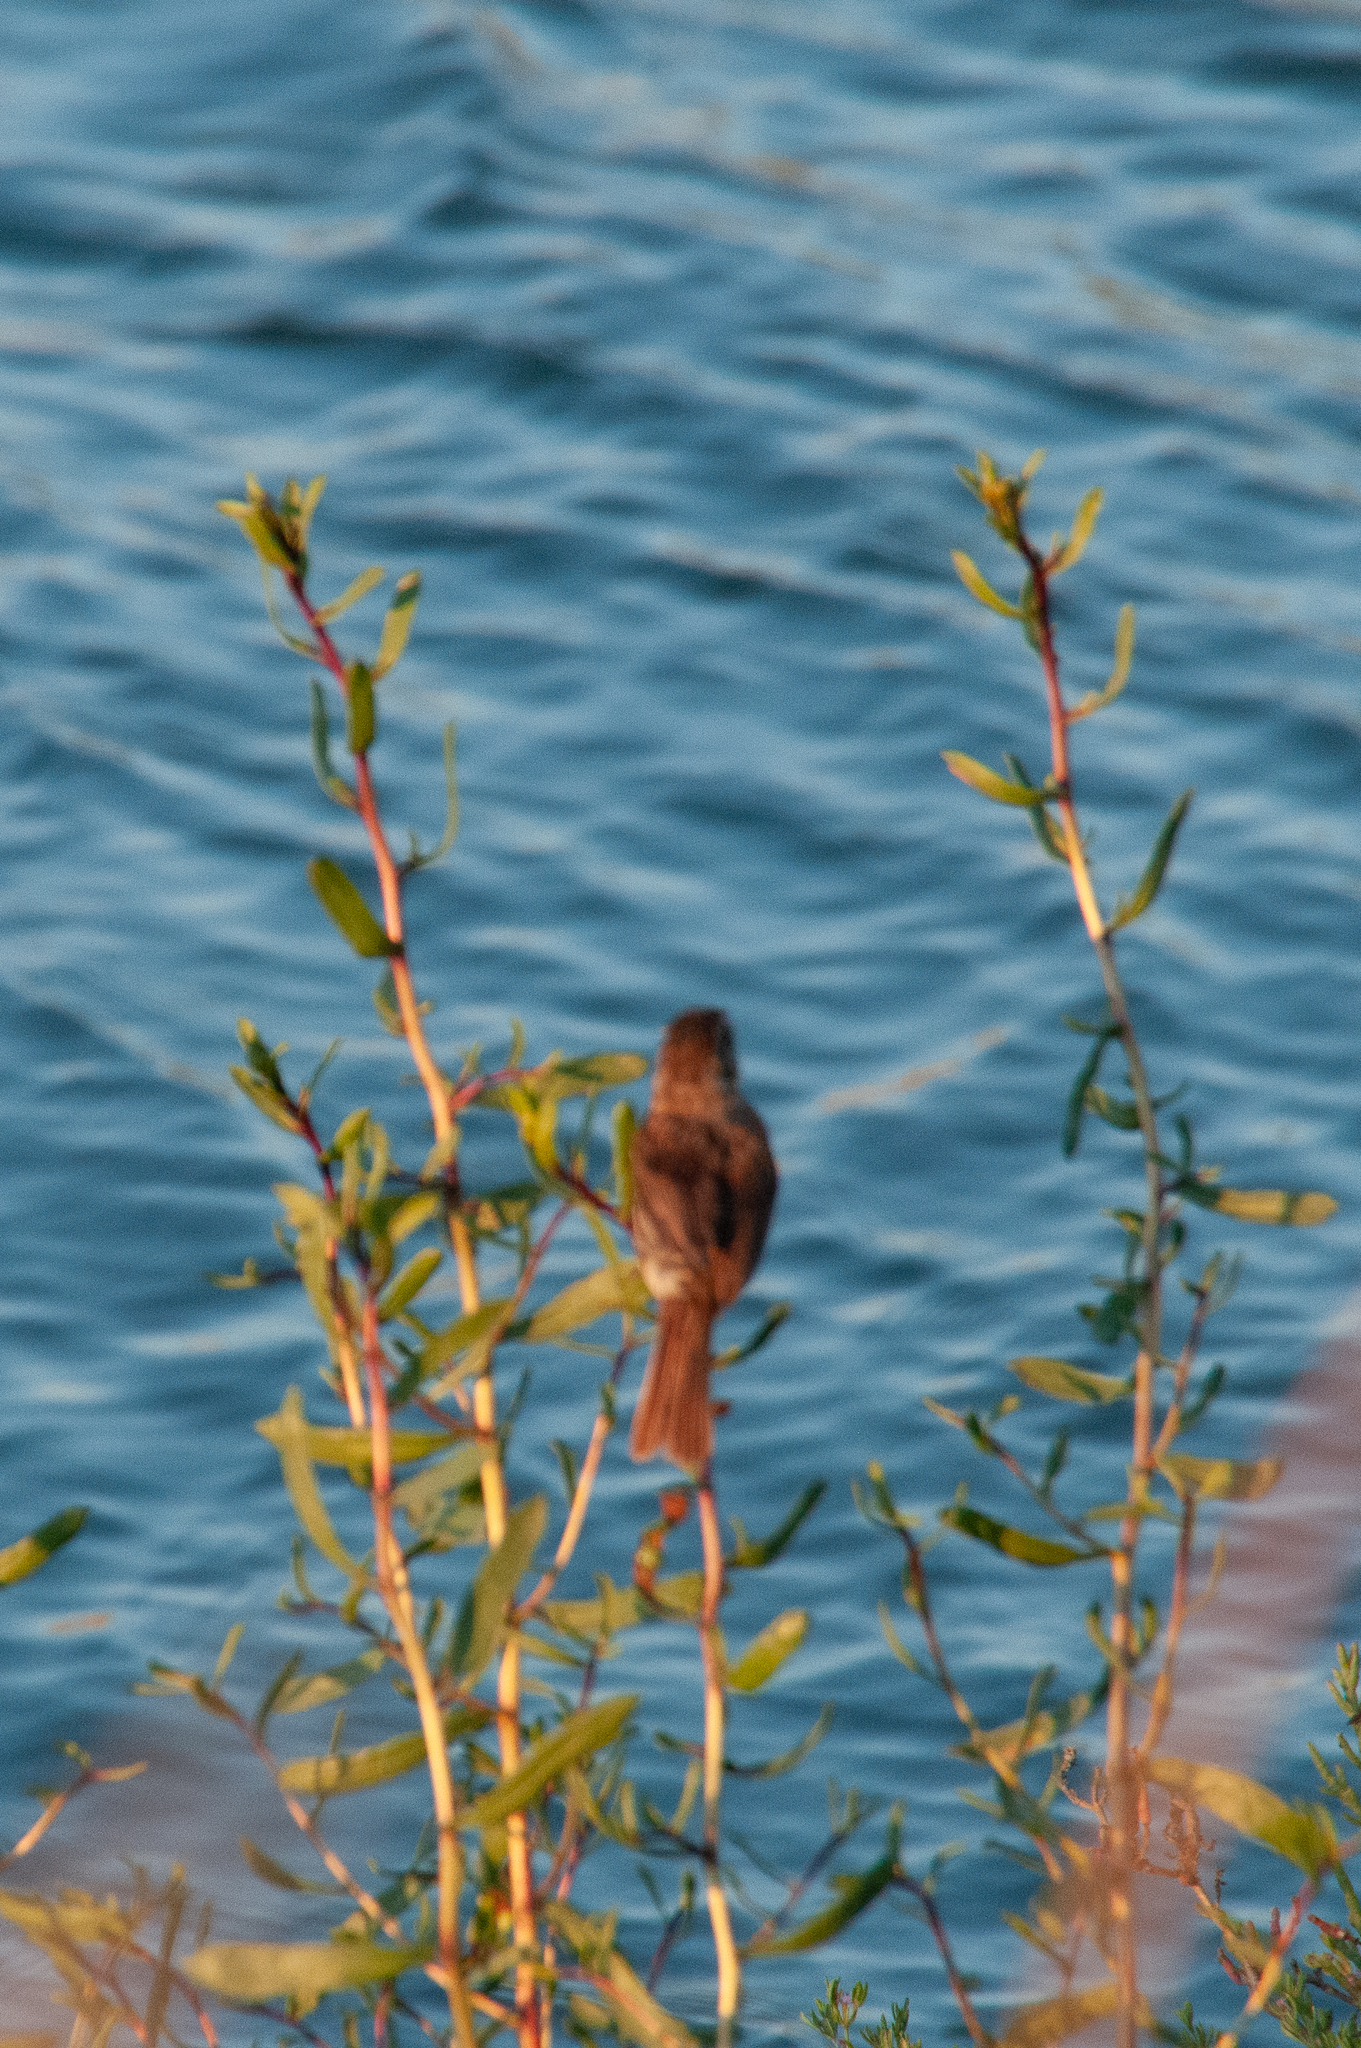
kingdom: Animalia
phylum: Chordata
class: Aves
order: Passeriformes
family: Passerellidae
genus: Melospiza
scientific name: Melospiza melodia
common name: Song sparrow
